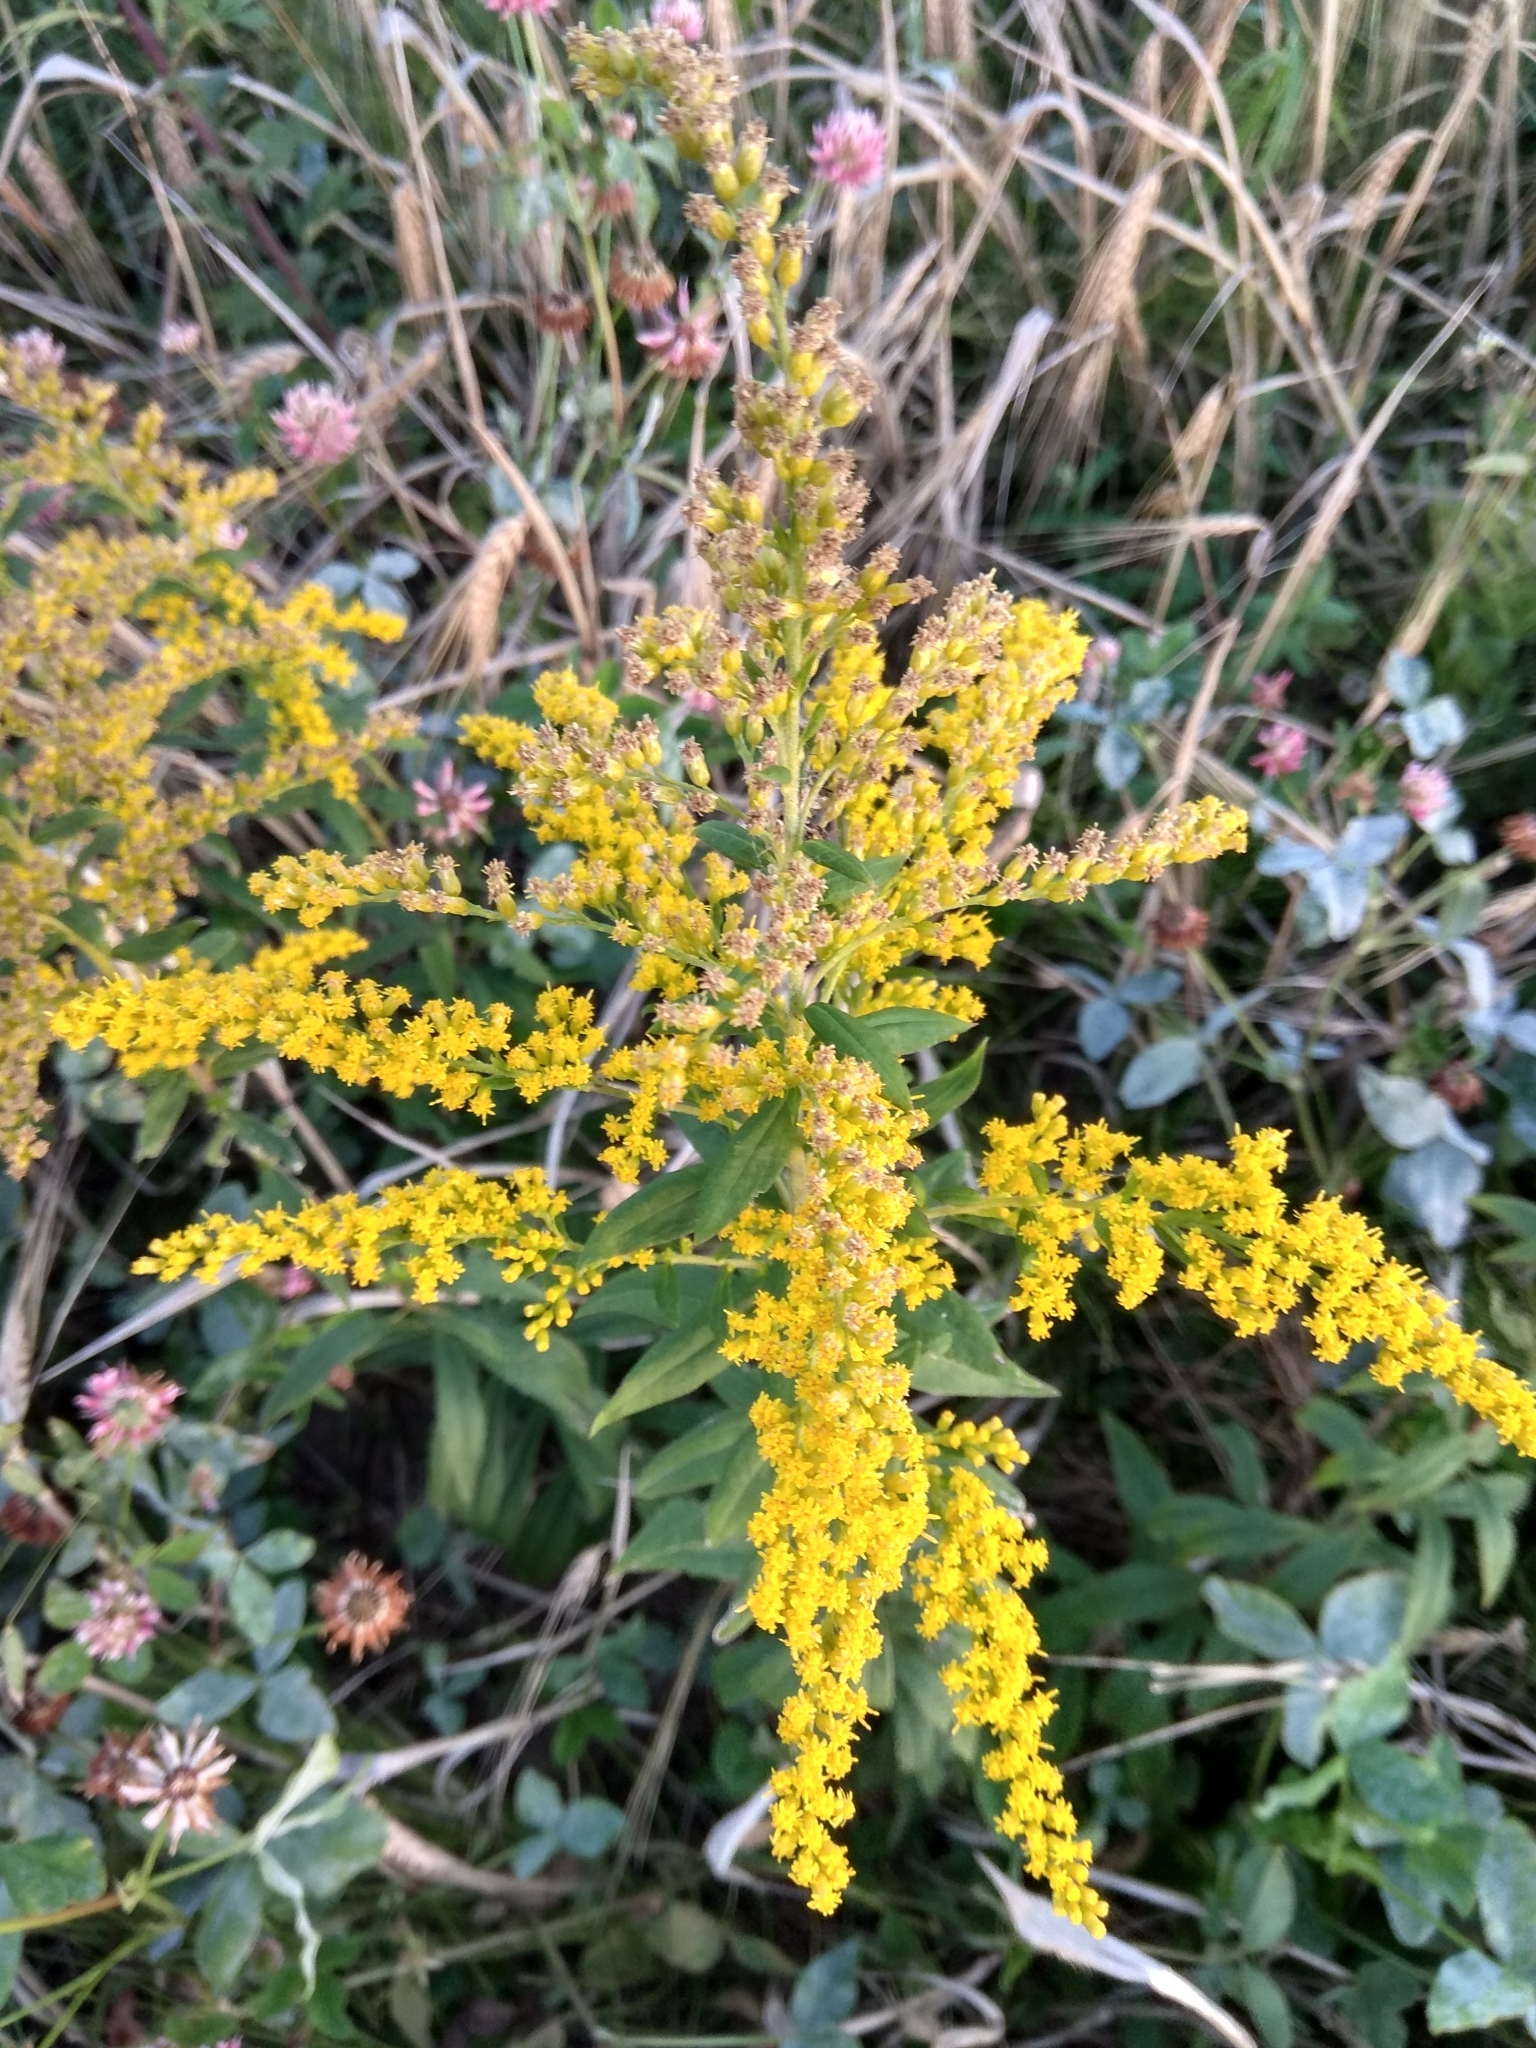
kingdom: Plantae
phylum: Tracheophyta
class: Magnoliopsida
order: Asterales
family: Asteraceae
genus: Solidago
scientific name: Solidago canadensis
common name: Canada goldenrod
